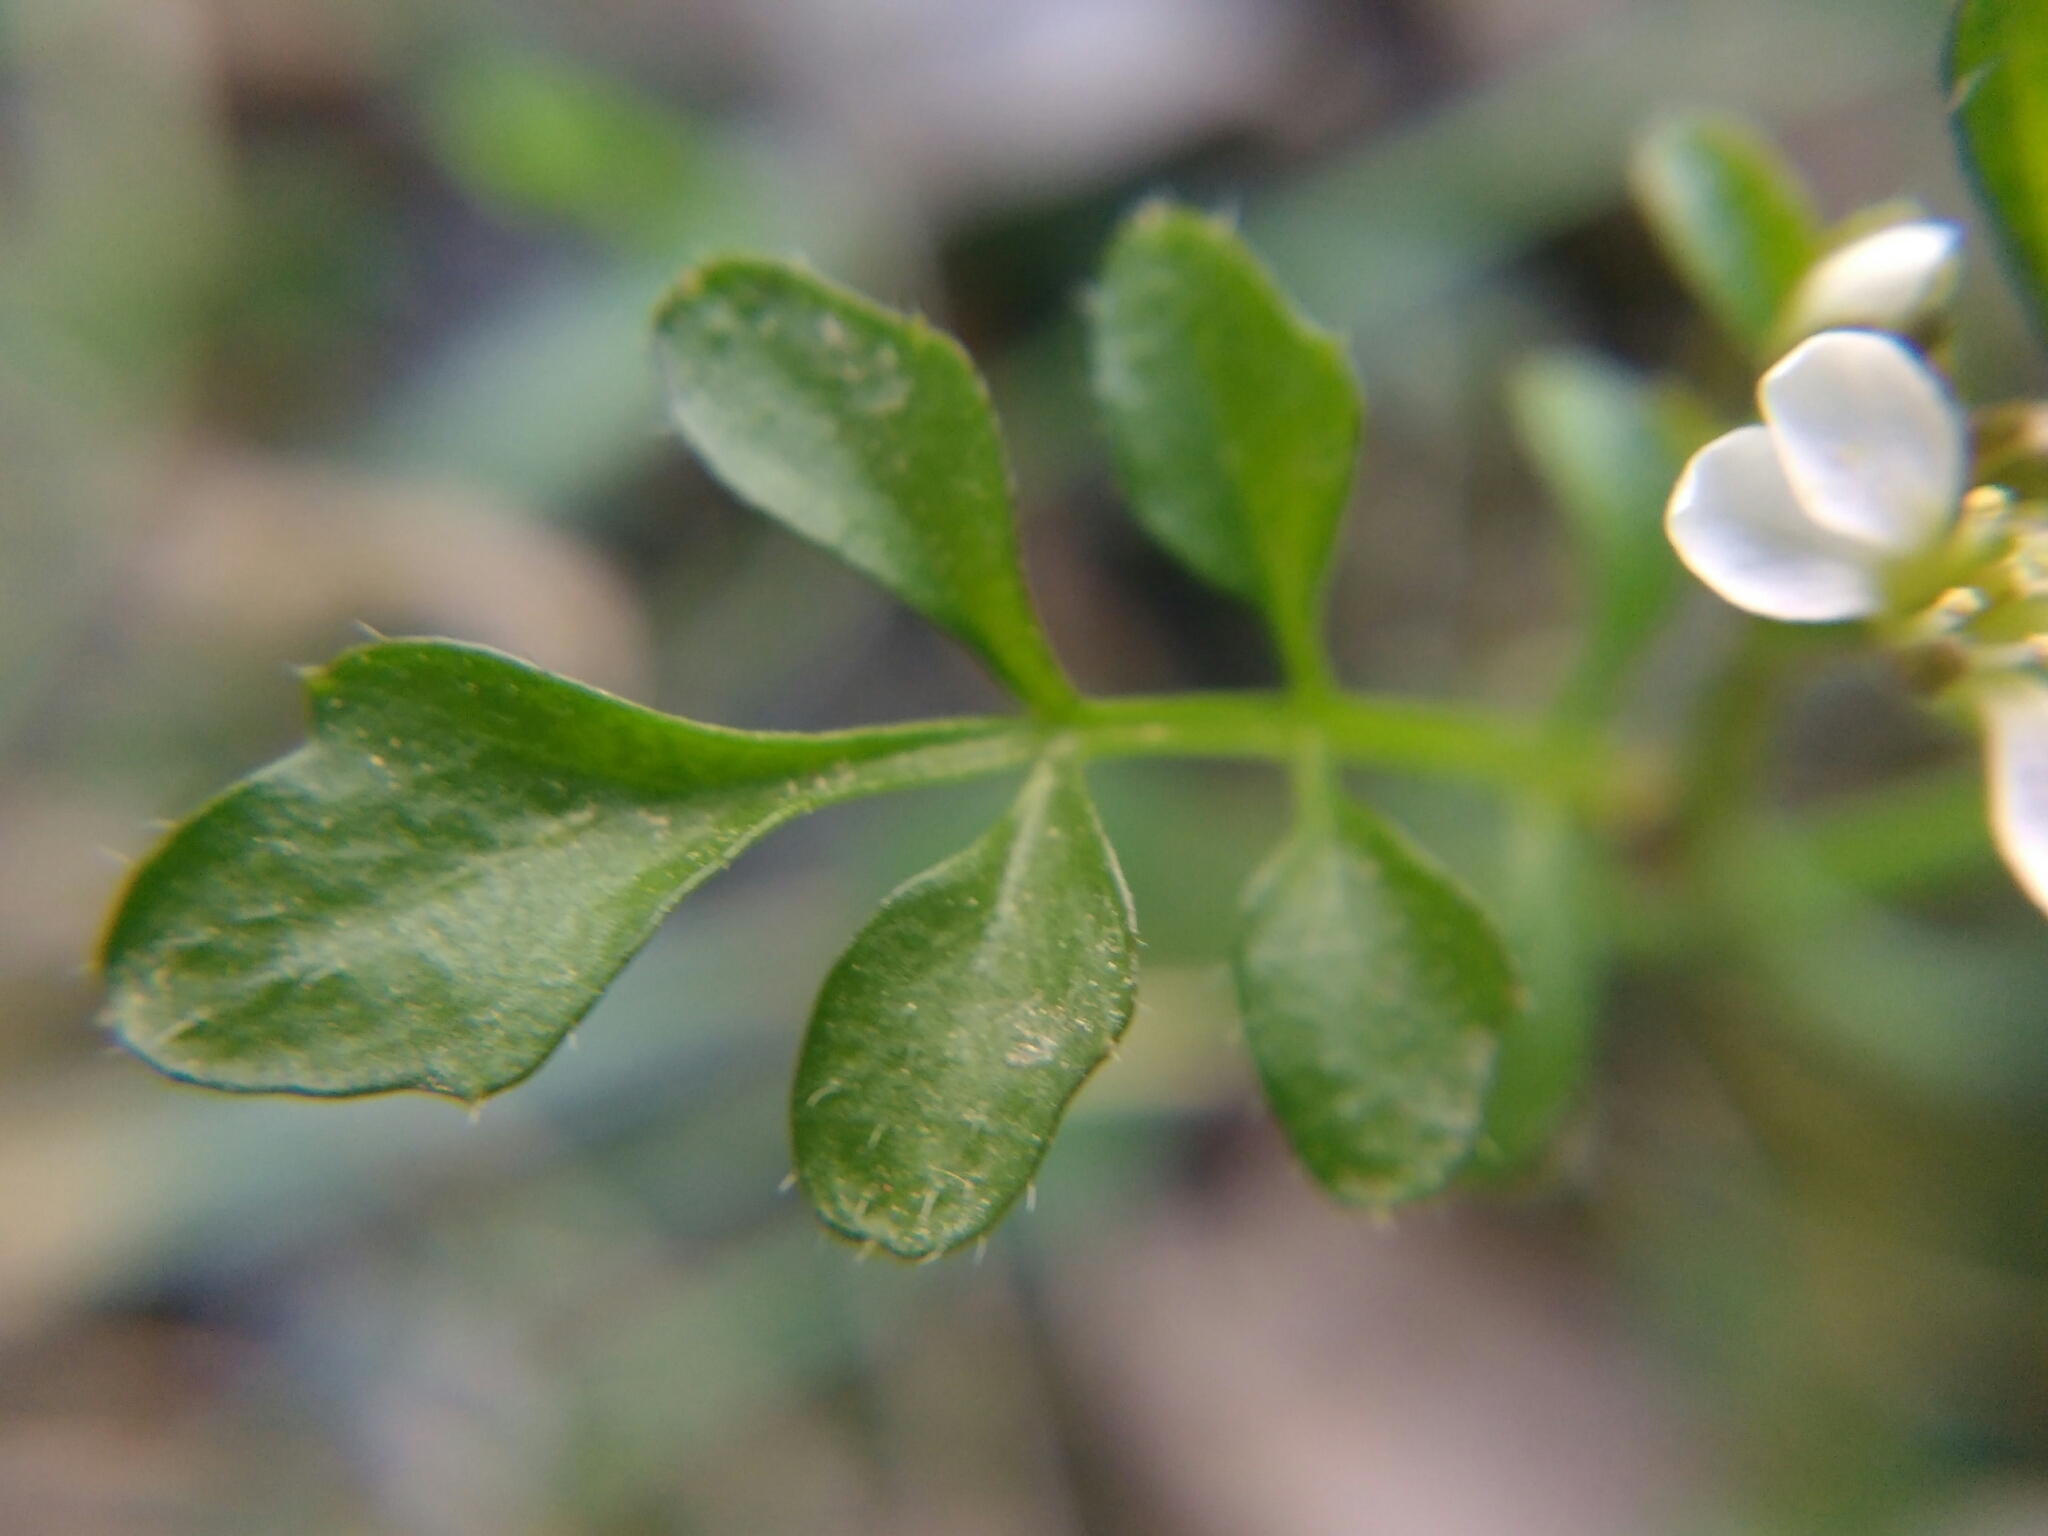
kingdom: Plantae
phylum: Tracheophyta
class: Magnoliopsida
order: Brassicales
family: Brassicaceae
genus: Cardamine
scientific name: Cardamine hirsuta
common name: Hairy bittercress
